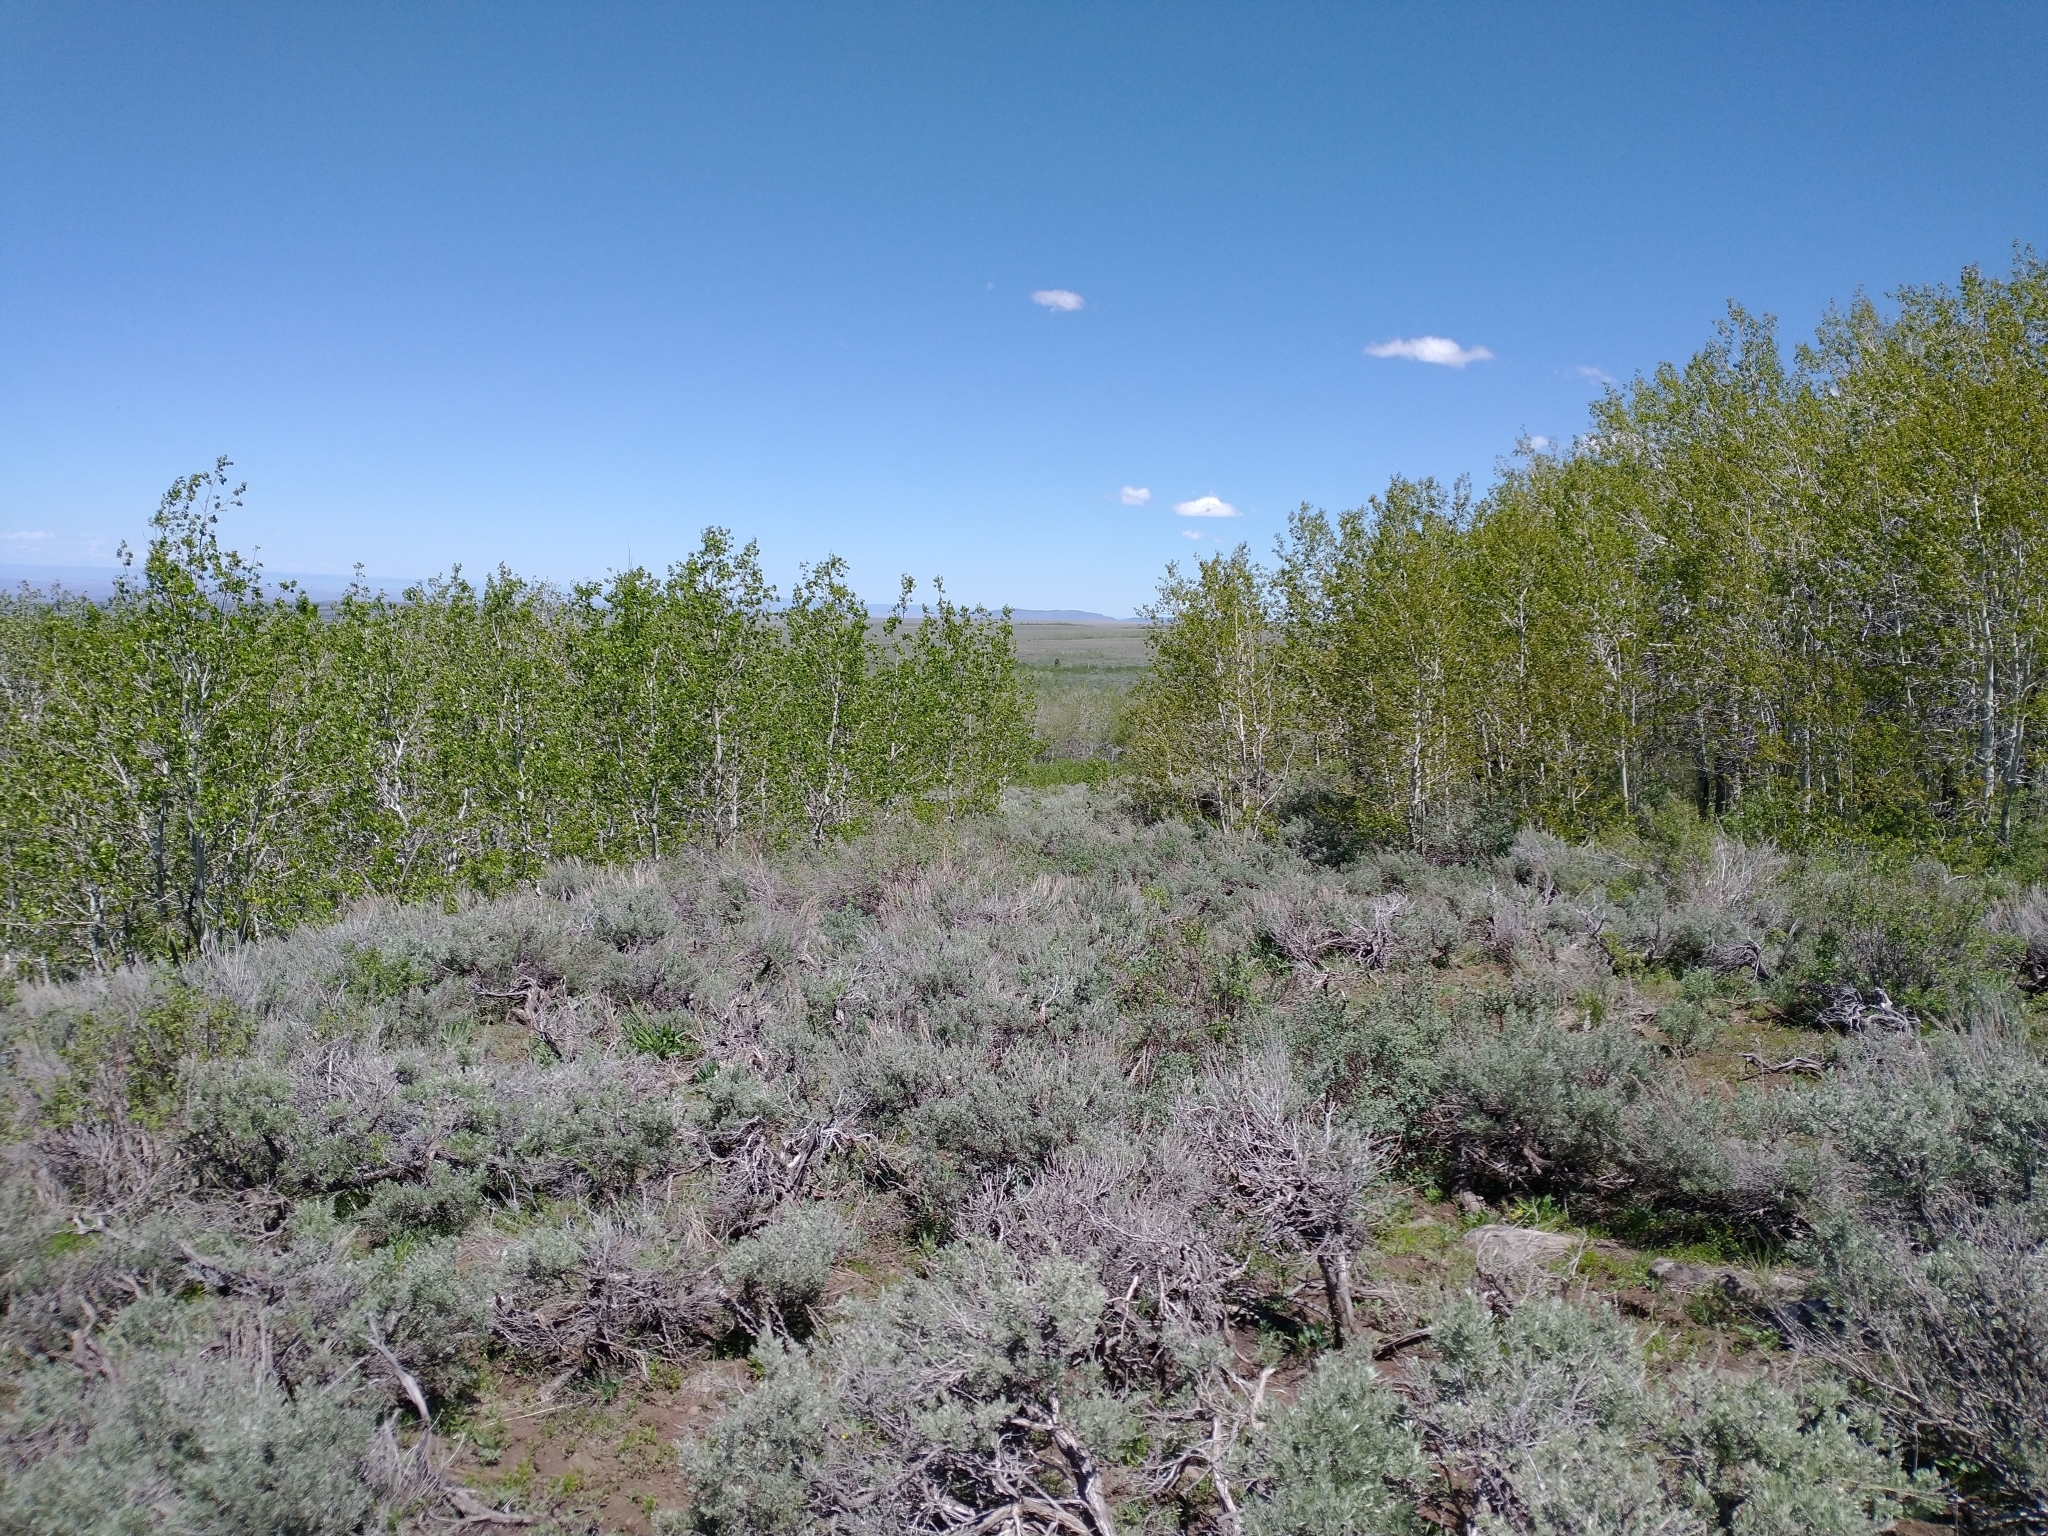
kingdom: Plantae
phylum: Tracheophyta
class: Magnoliopsida
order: Malpighiales
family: Salicaceae
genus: Populus
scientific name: Populus tremuloides
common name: Quaking aspen
